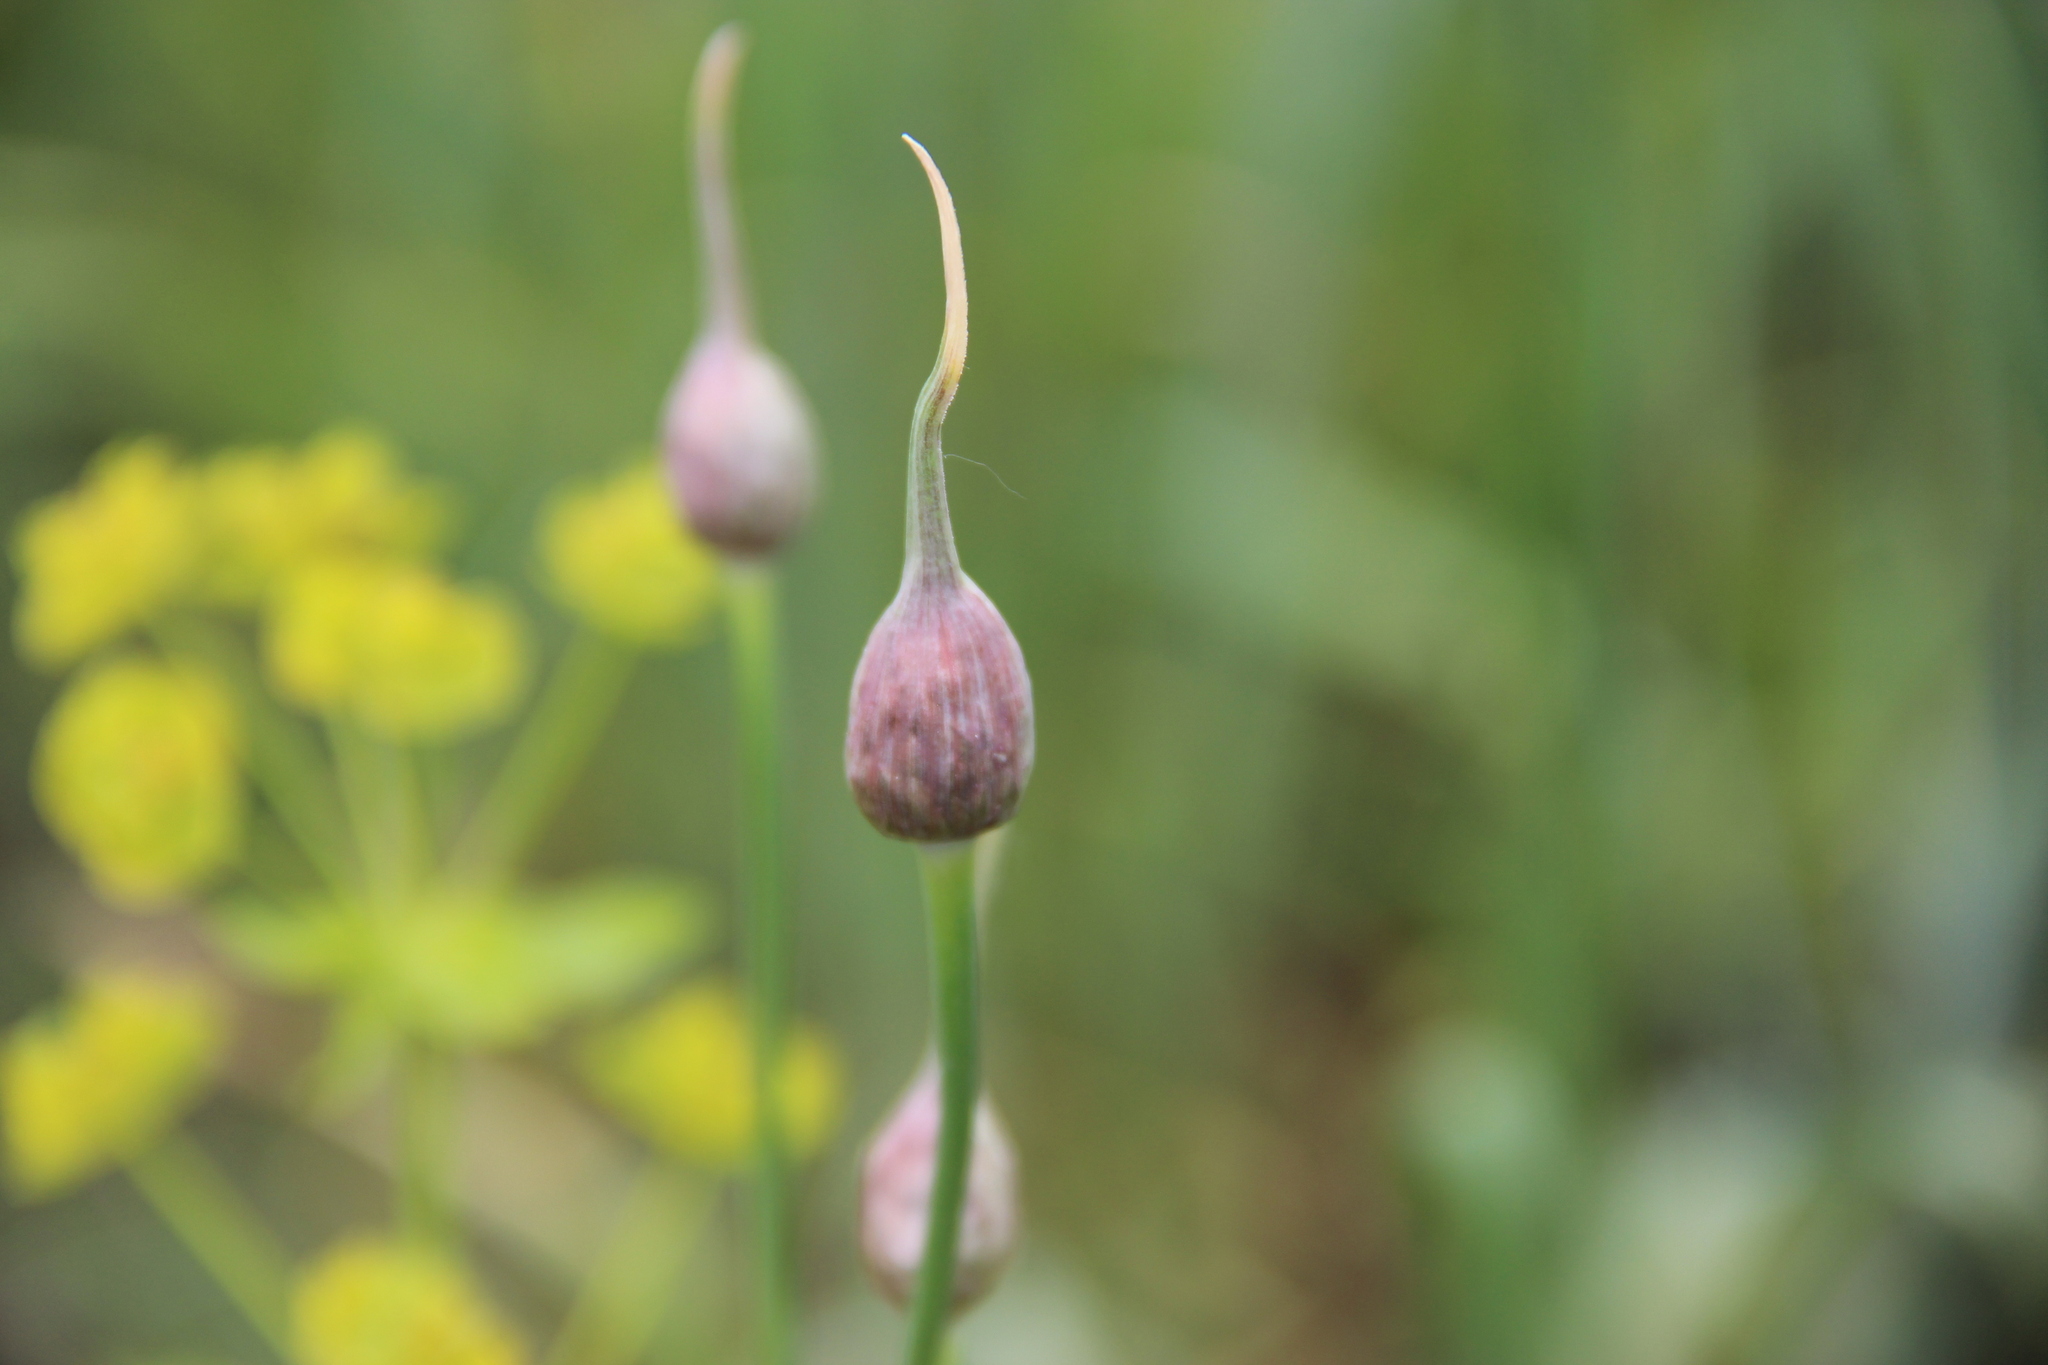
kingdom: Plantae
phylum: Tracheophyta
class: Liliopsida
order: Asparagales
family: Amaryllidaceae
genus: Allium
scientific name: Allium rotundum
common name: Sand leek
